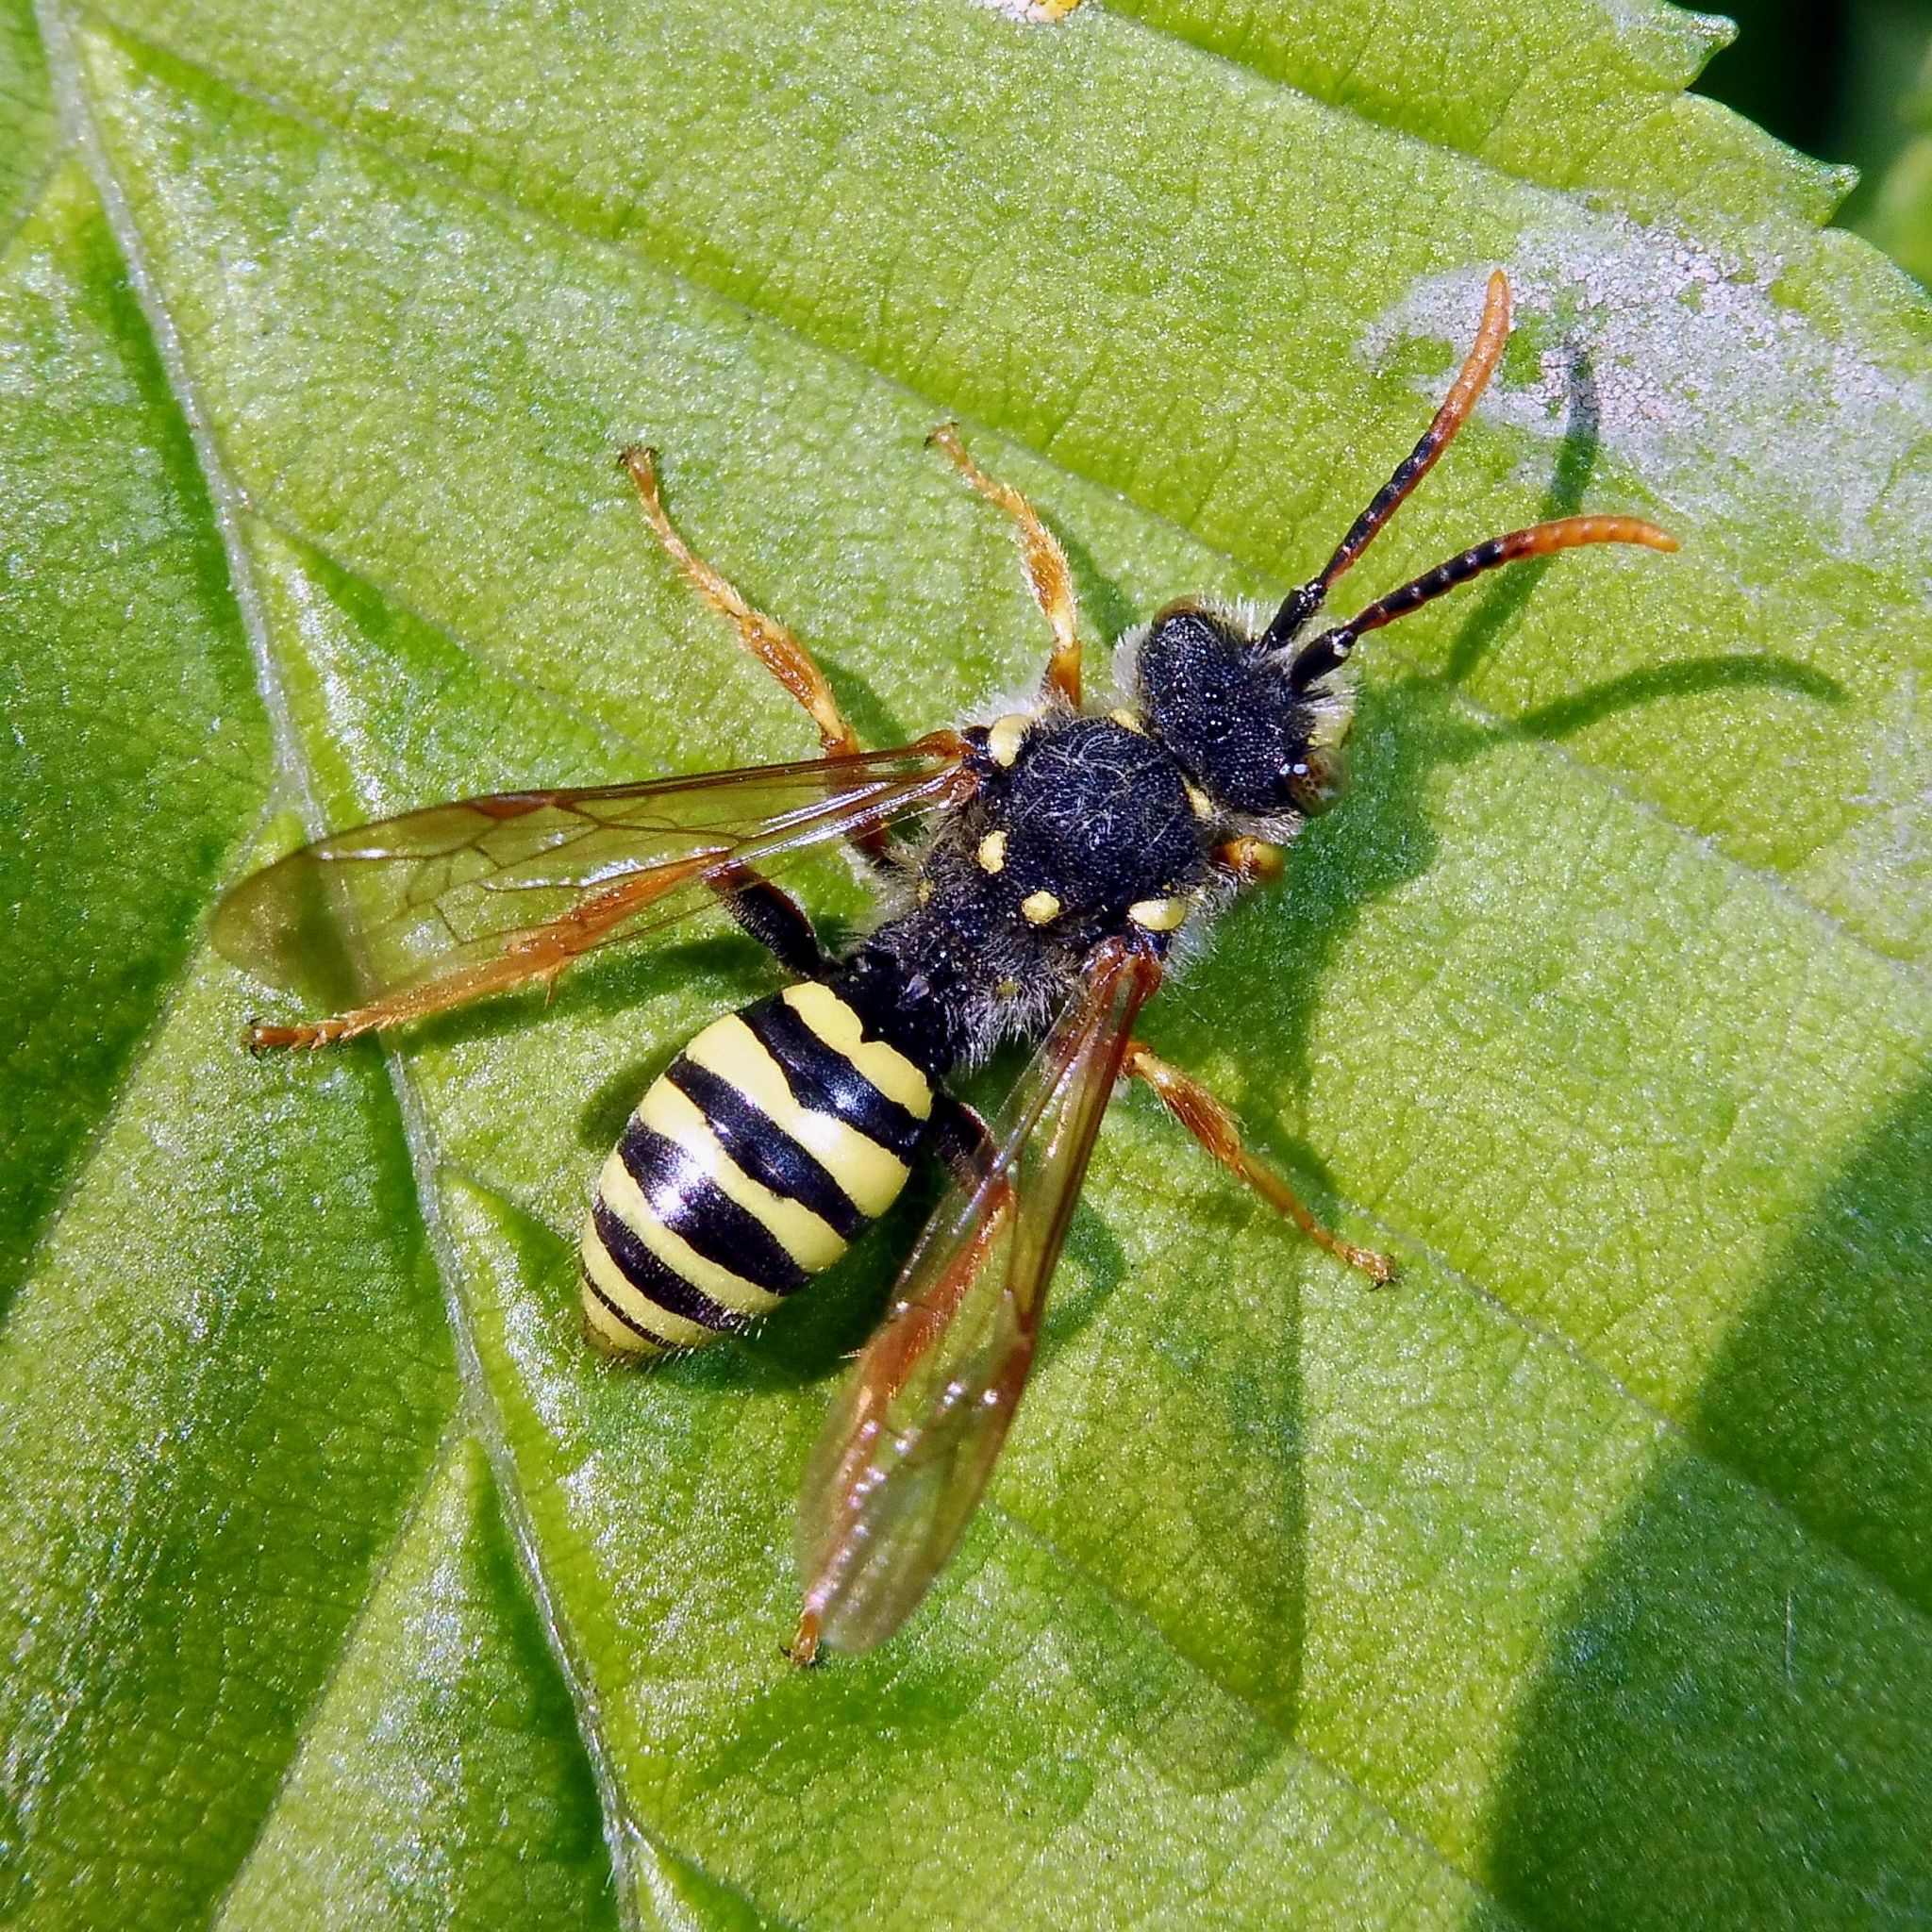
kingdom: Animalia
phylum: Arthropoda
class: Insecta
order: Hymenoptera
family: Apidae
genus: Nomada
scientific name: Nomada goodeniana
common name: Gooden's nomad bee
